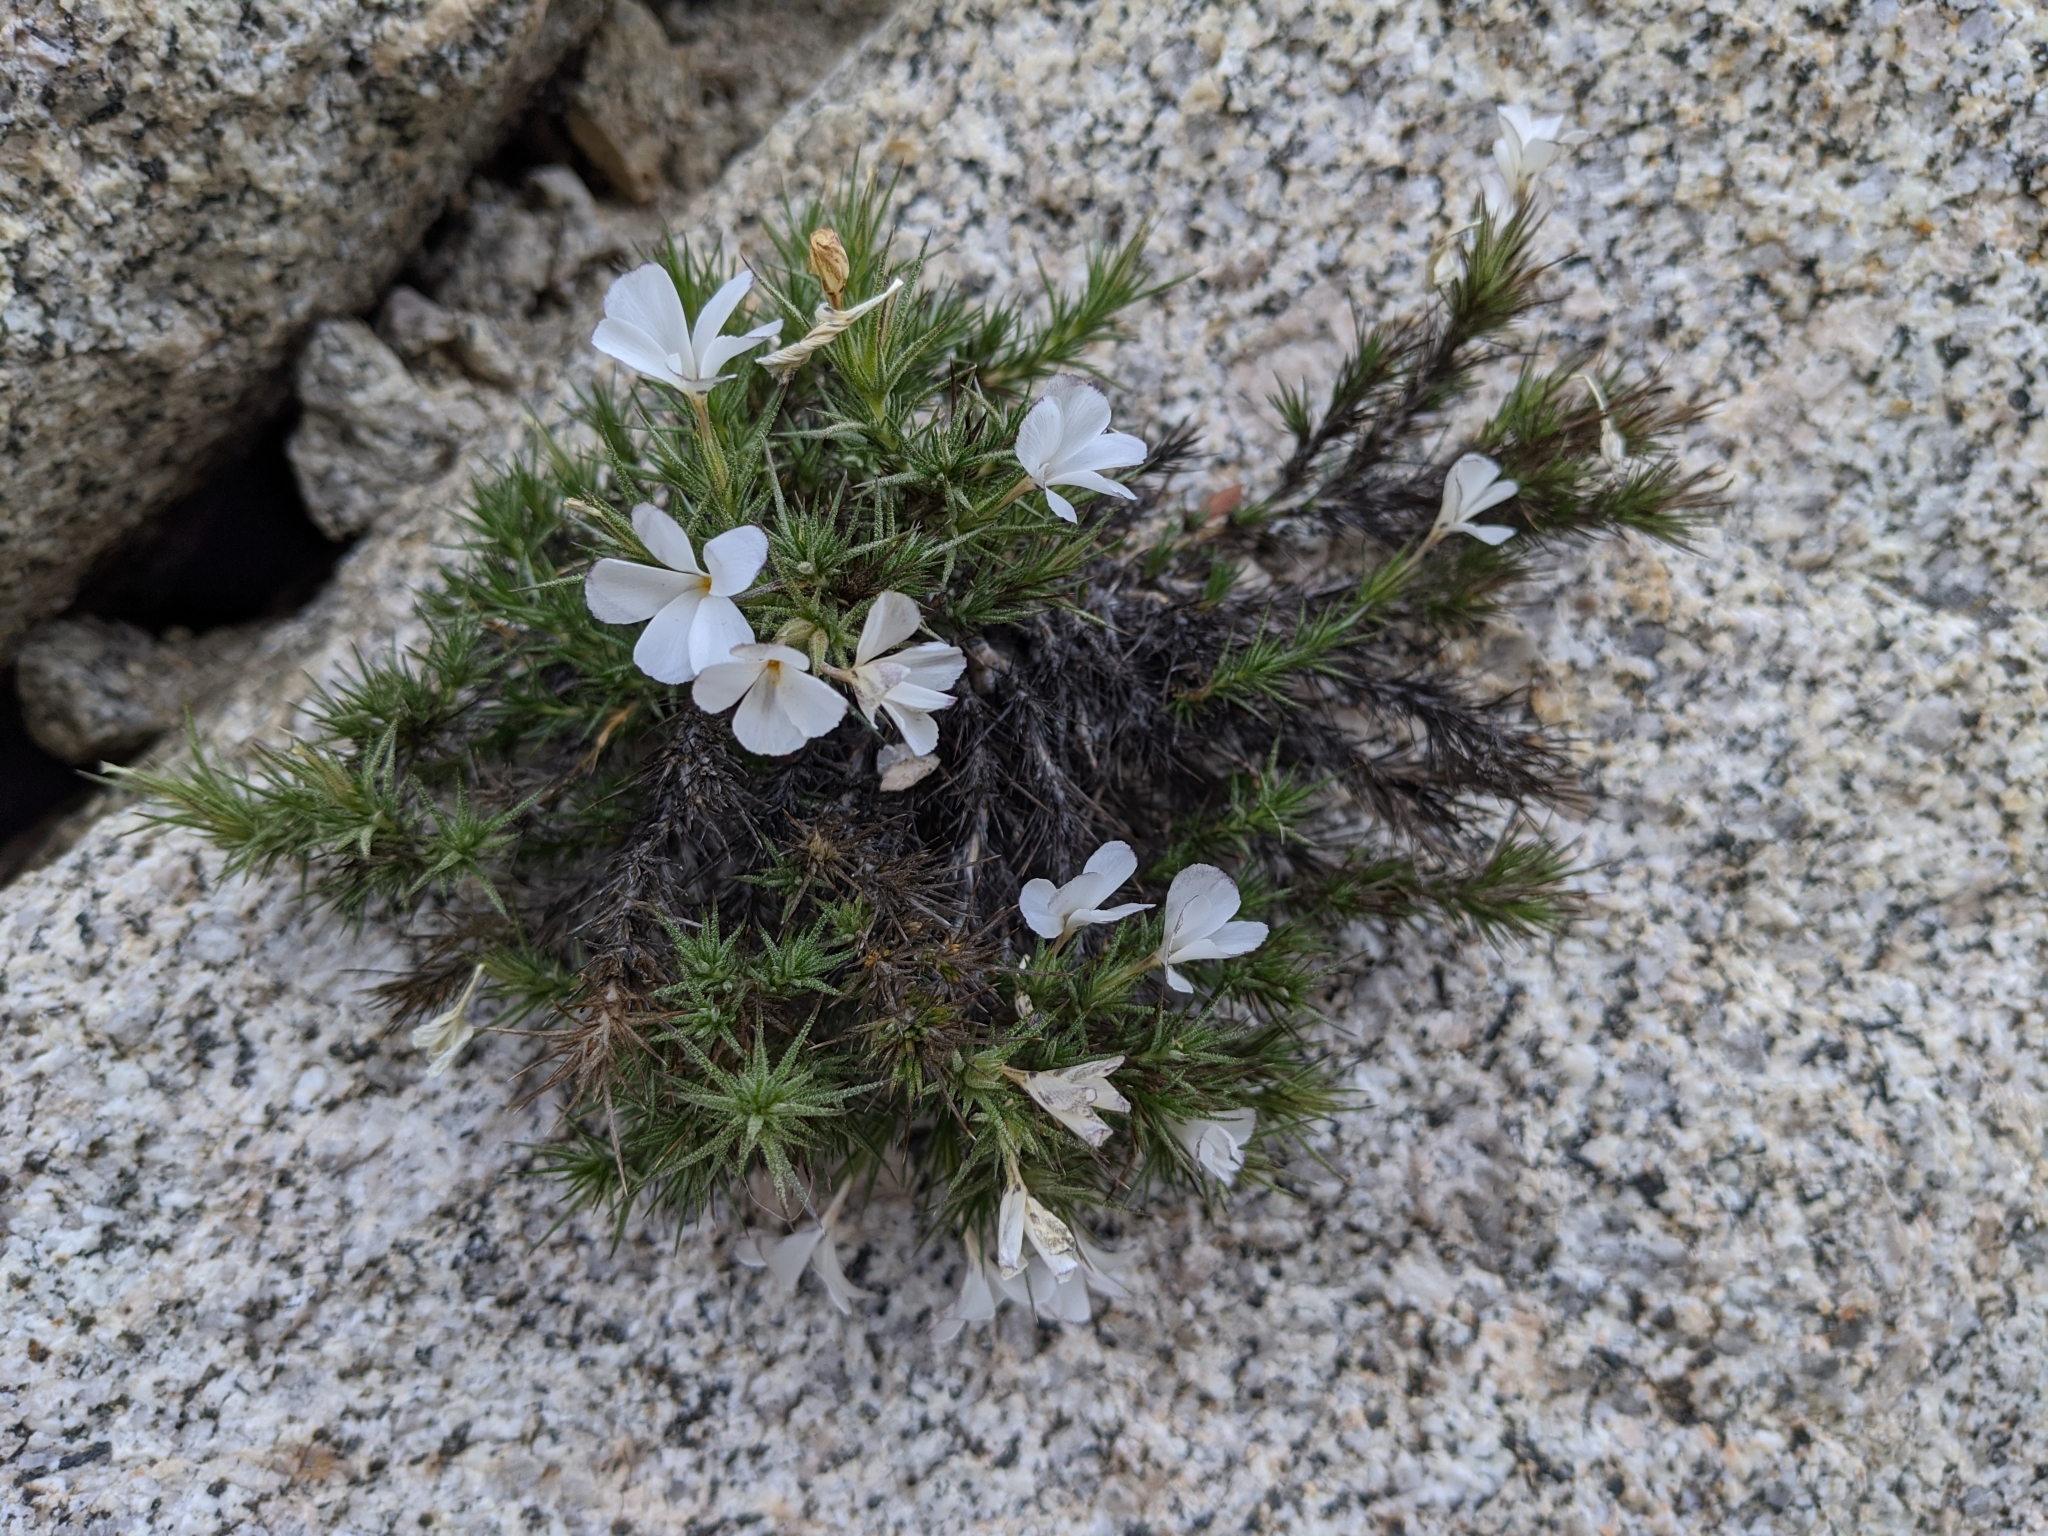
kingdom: Plantae
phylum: Tracheophyta
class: Magnoliopsida
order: Ericales
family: Polemoniaceae
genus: Linanthus
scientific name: Linanthus pungens
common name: Granite prickly phlox
